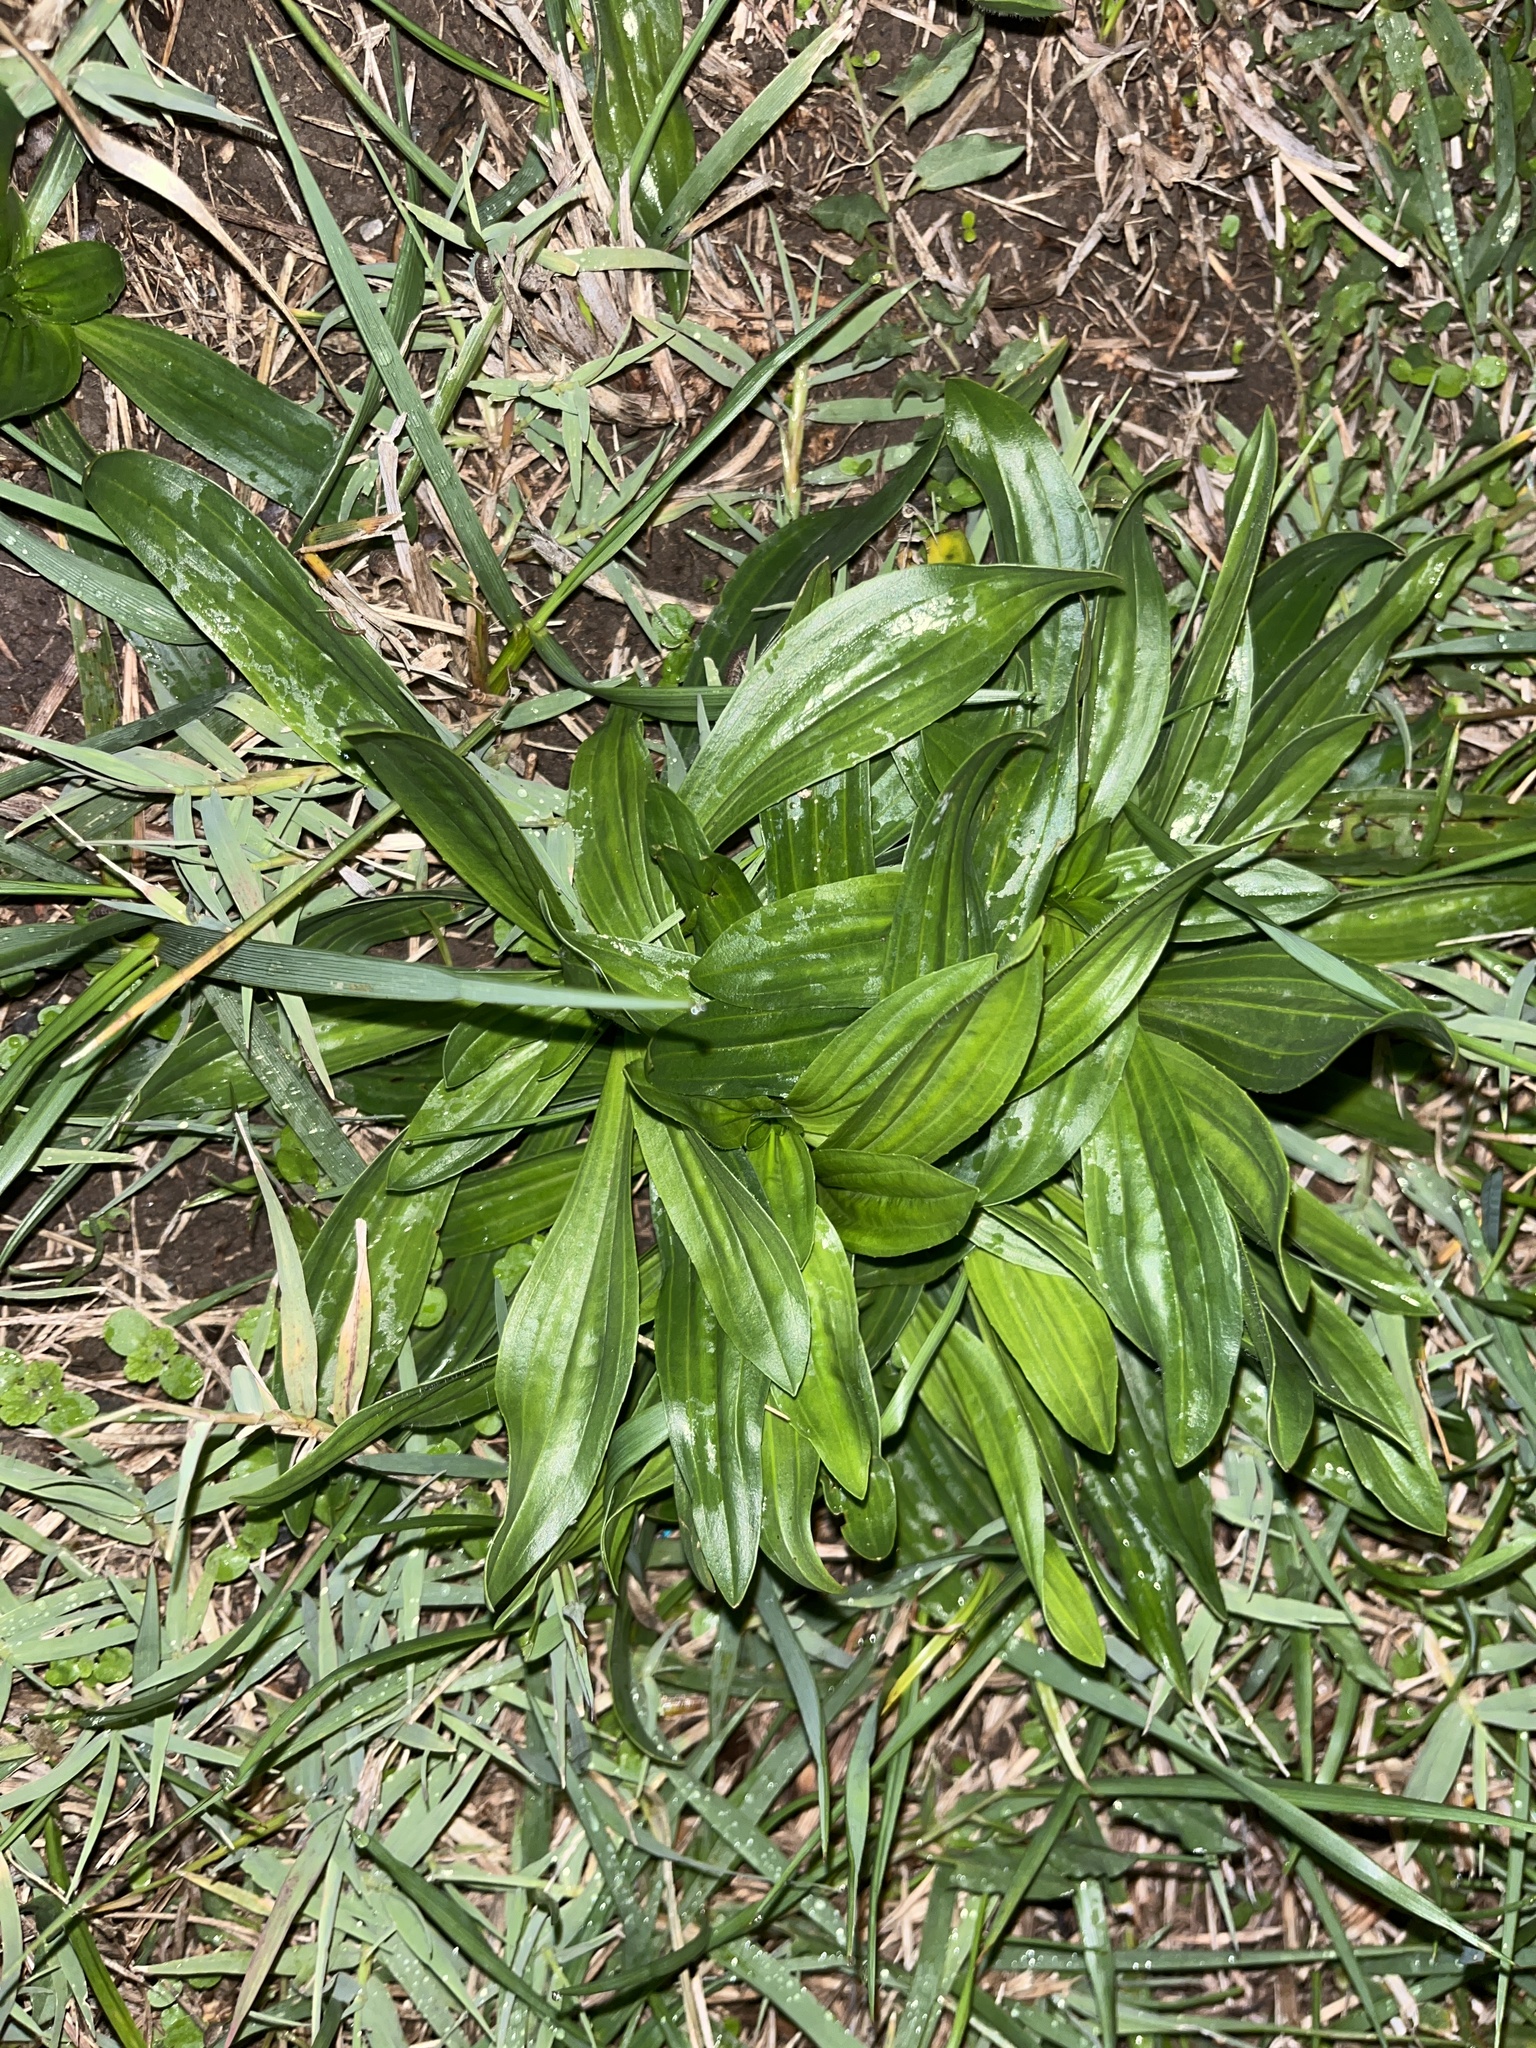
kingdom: Plantae
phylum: Tracheophyta
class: Magnoliopsida
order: Lamiales
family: Plantaginaceae
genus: Plantago
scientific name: Plantago lanceolata
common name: Ribwort plantain
